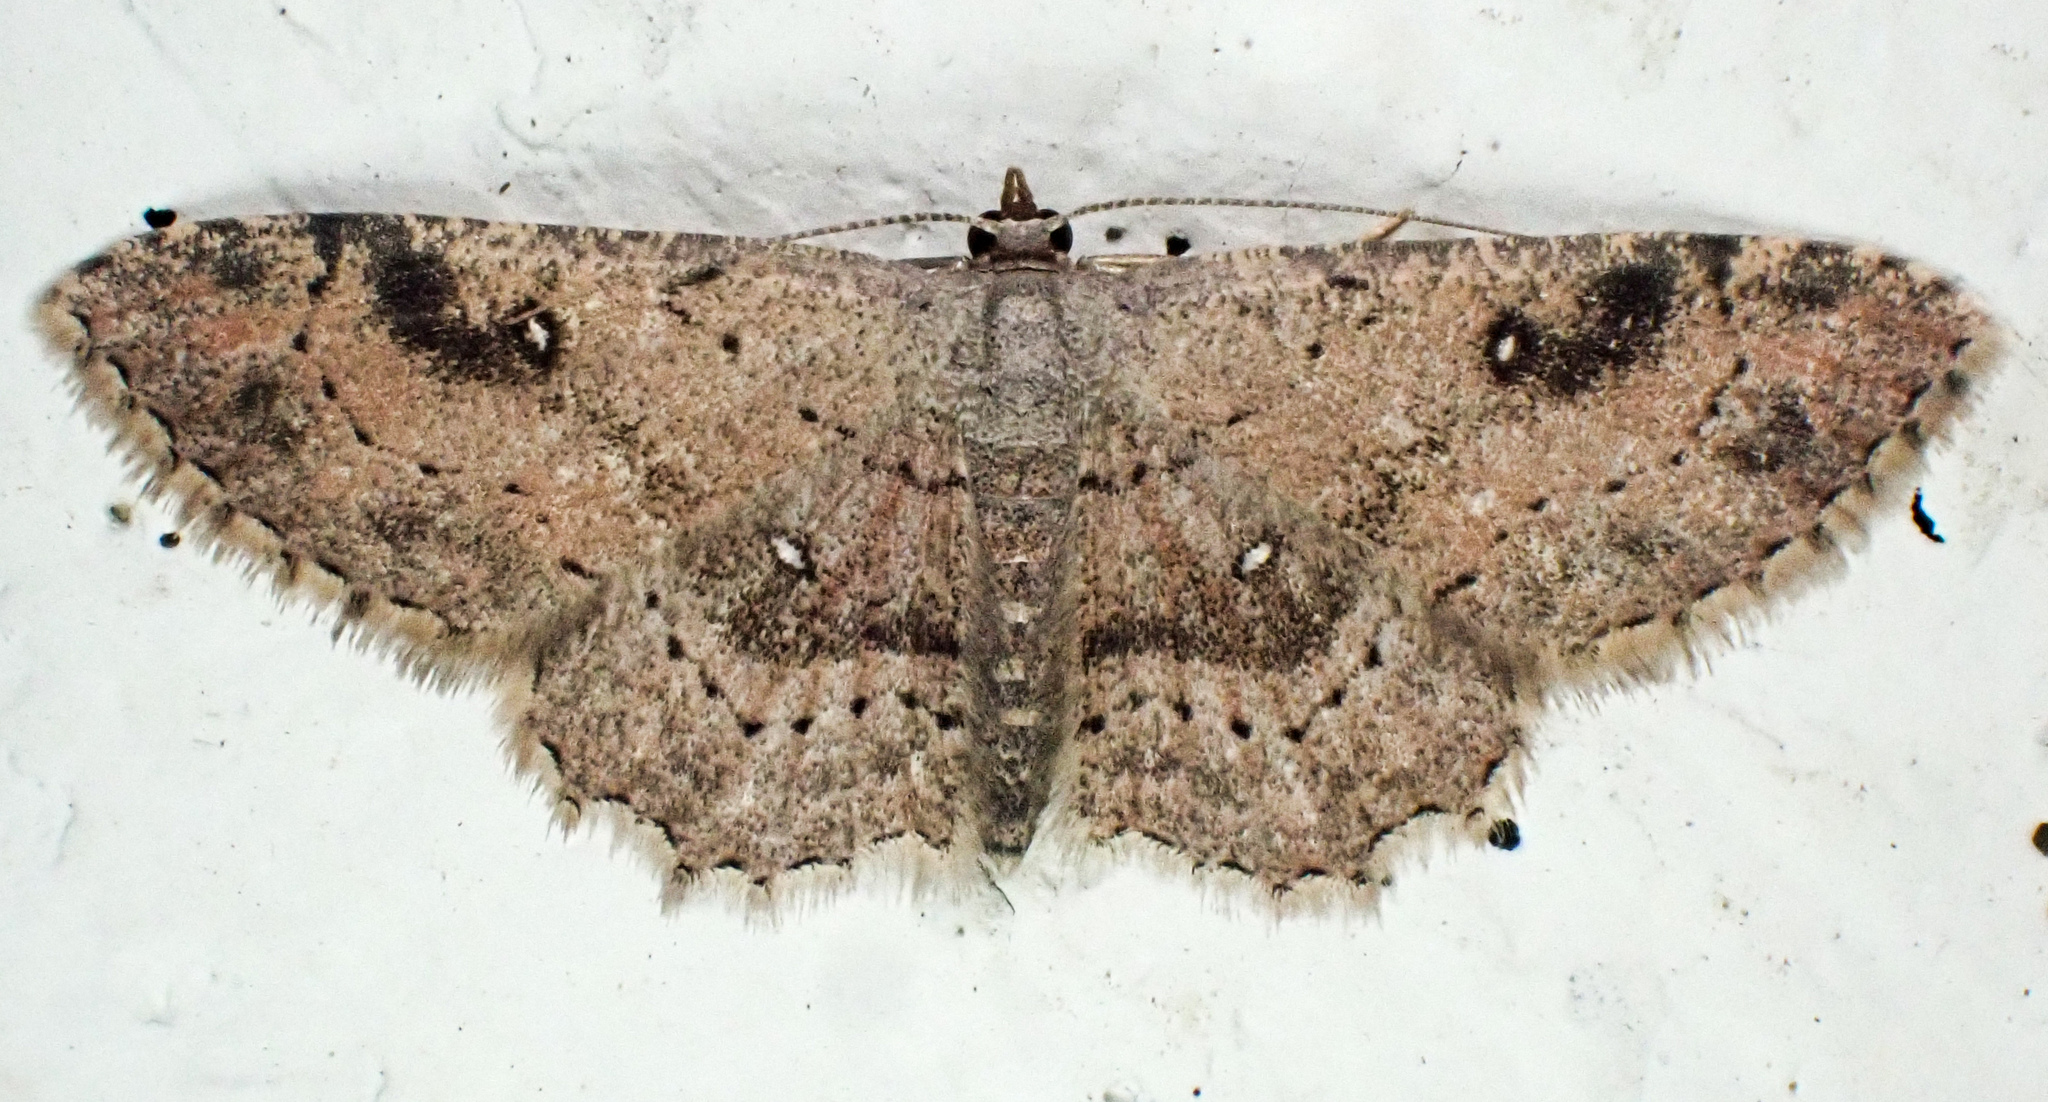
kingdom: Animalia
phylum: Arthropoda
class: Insecta
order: Lepidoptera
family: Geometridae
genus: Cyclophora
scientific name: Cyclophora nanaria
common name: Cankerworm
